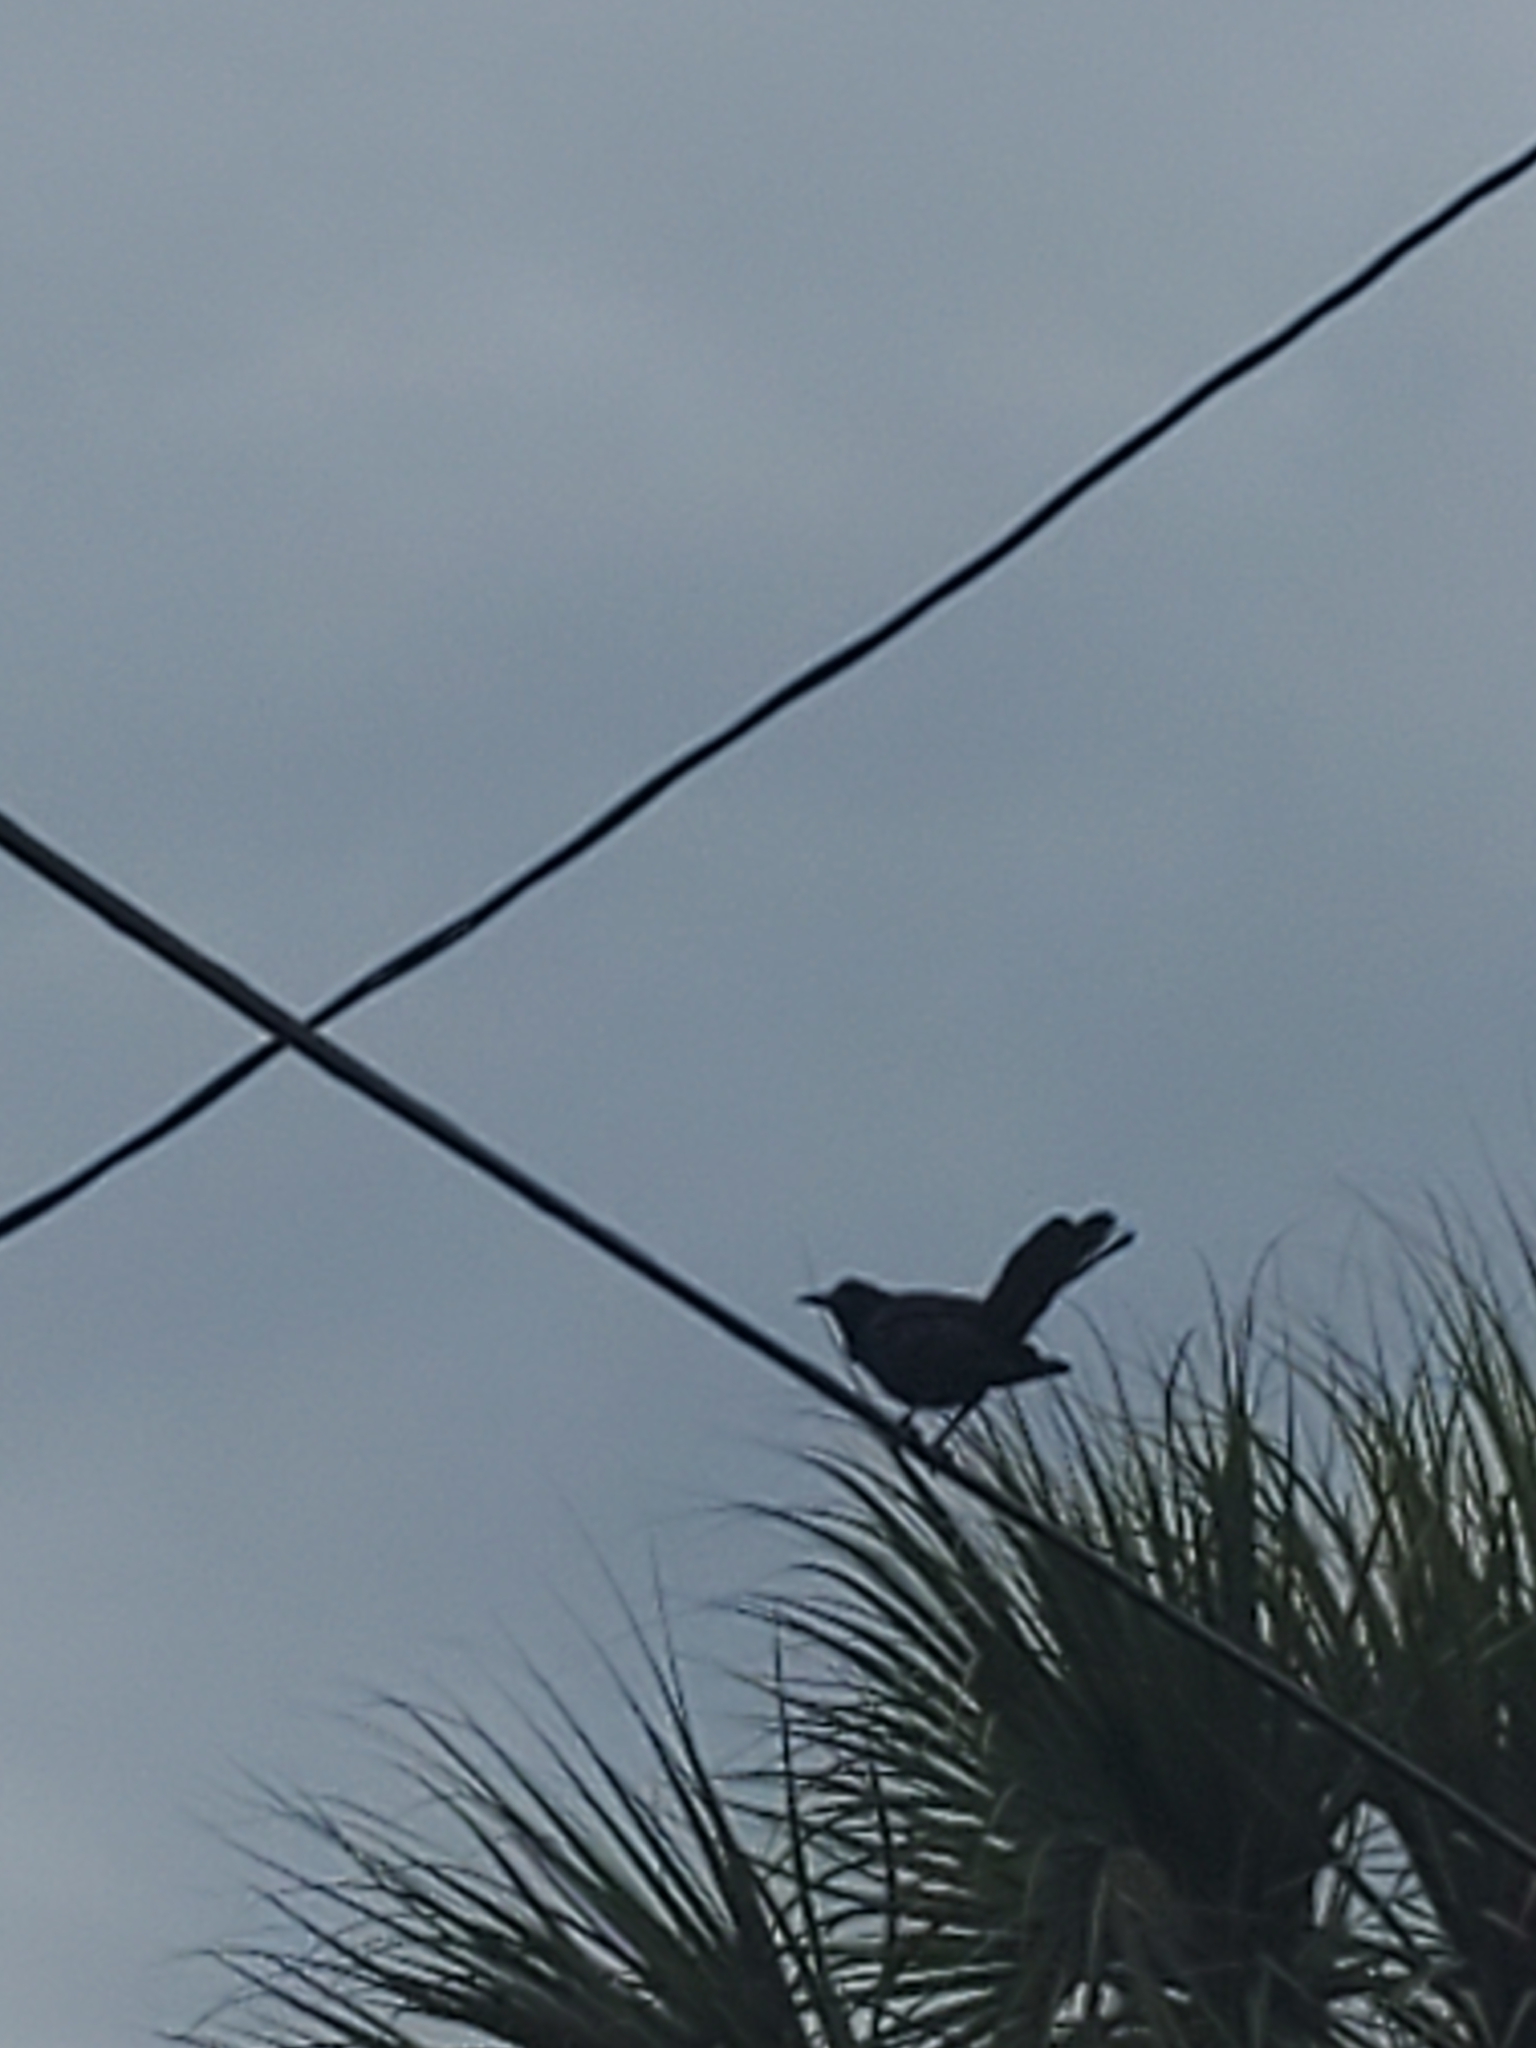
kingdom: Animalia
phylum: Chordata
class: Aves
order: Passeriformes
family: Icteridae
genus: Quiscalus
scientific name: Quiscalus mexicanus
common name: Great-tailed grackle
